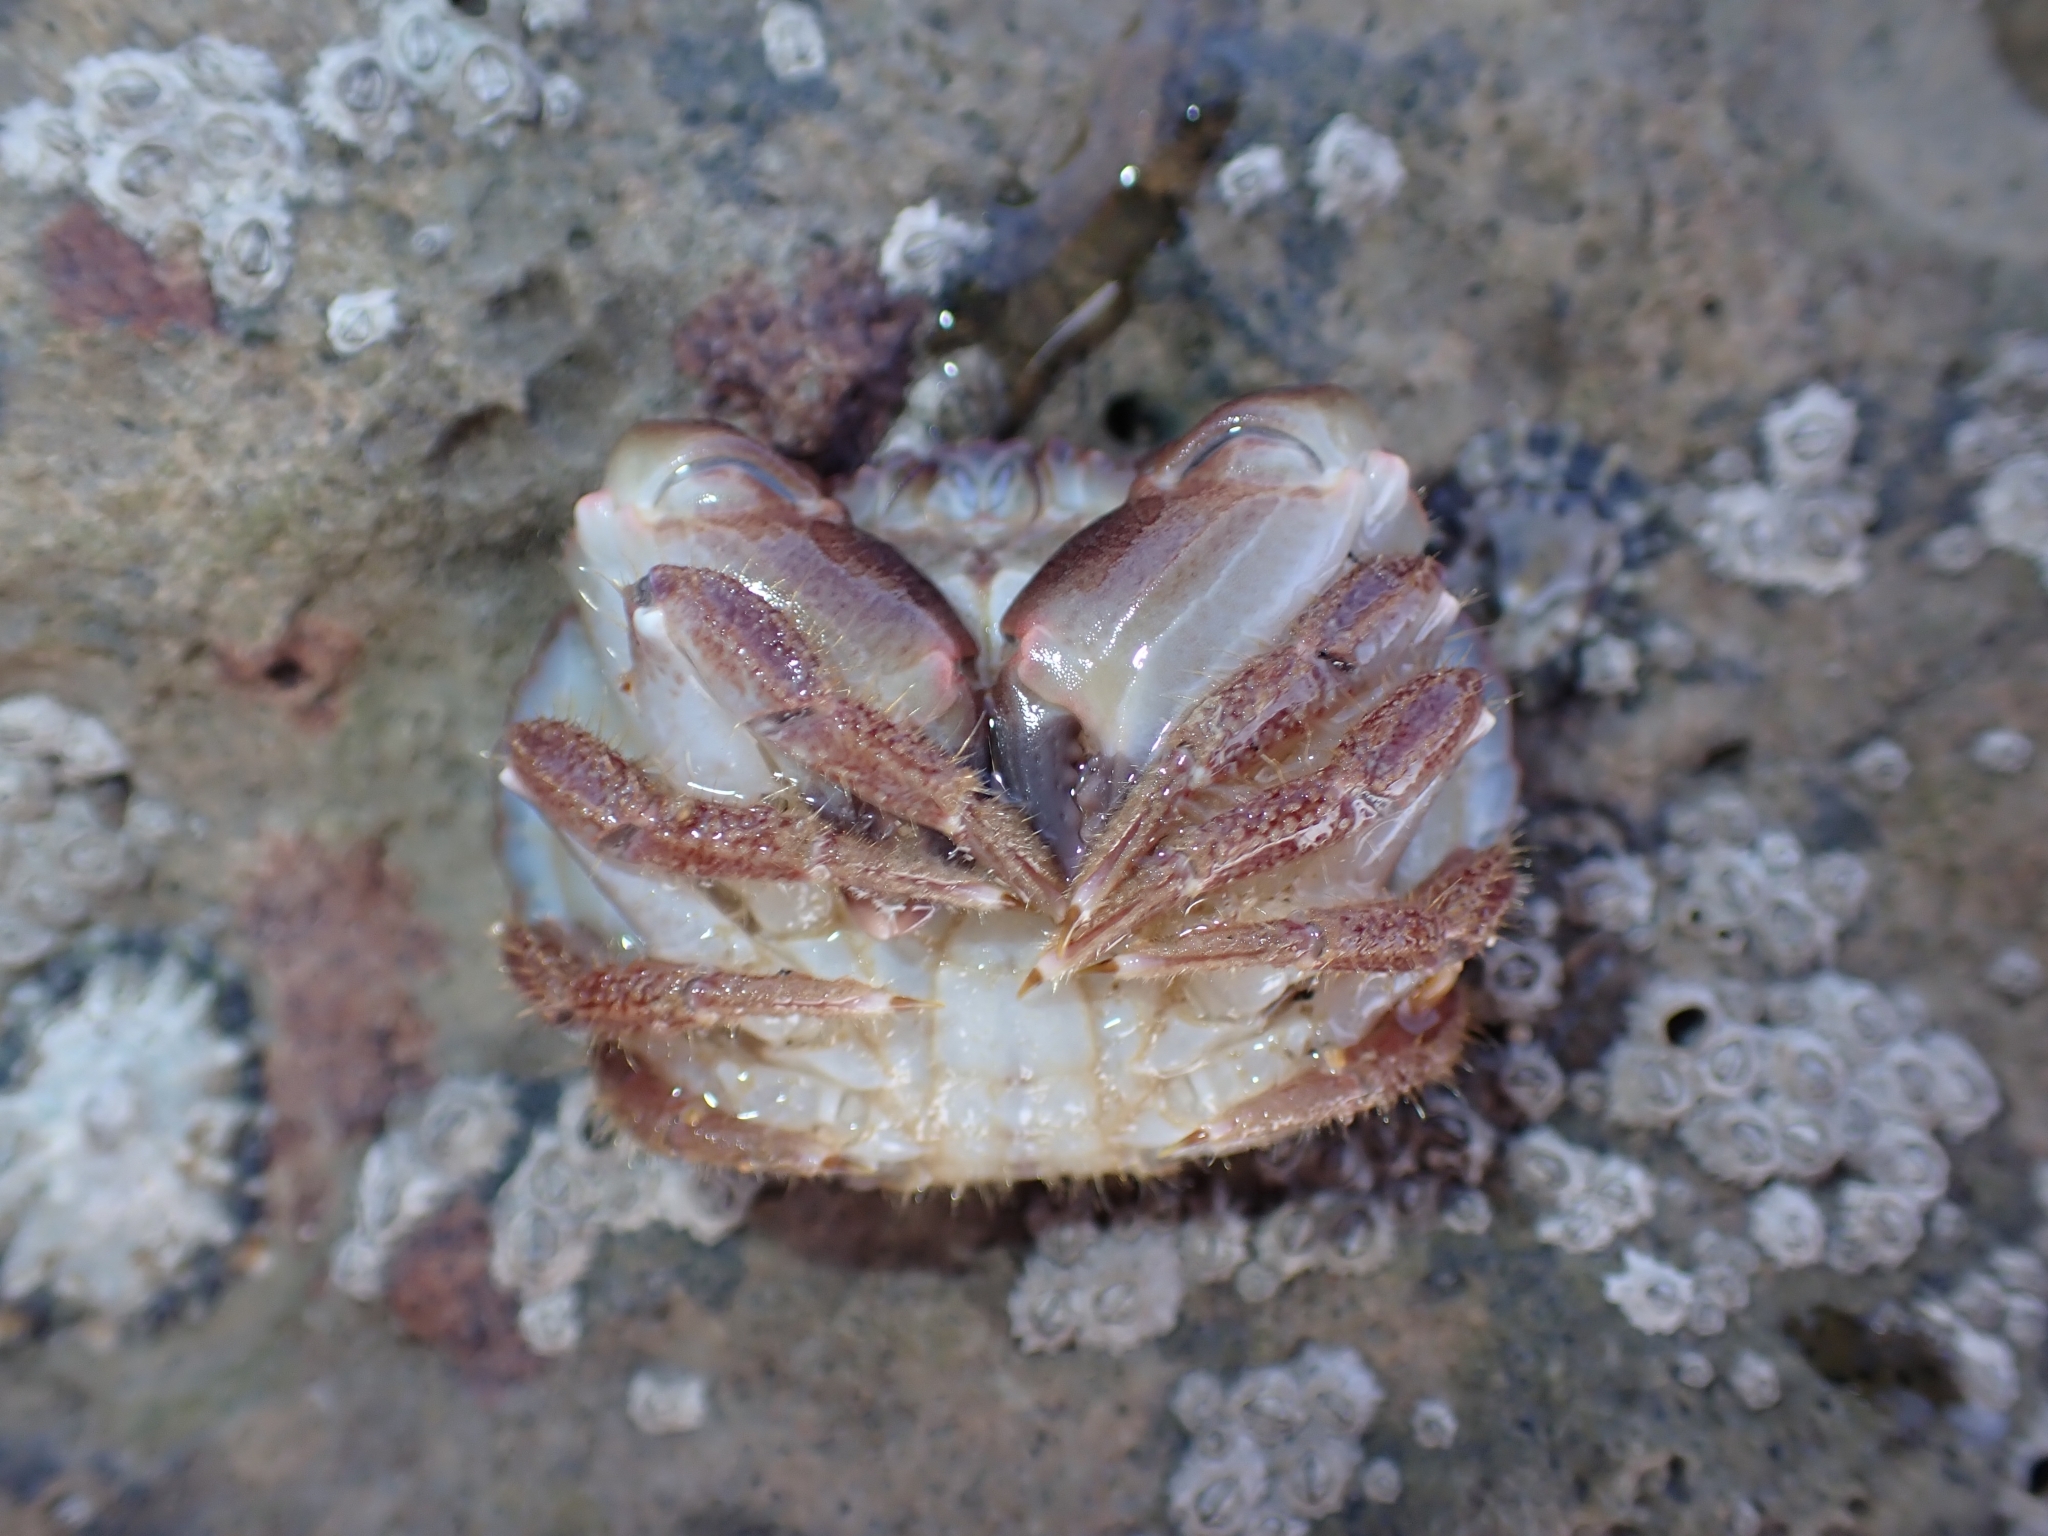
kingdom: Animalia
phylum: Arthropoda
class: Malacostraca
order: Decapoda
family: Cancridae
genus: Cancer
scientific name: Cancer pagurus
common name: Edible crab
